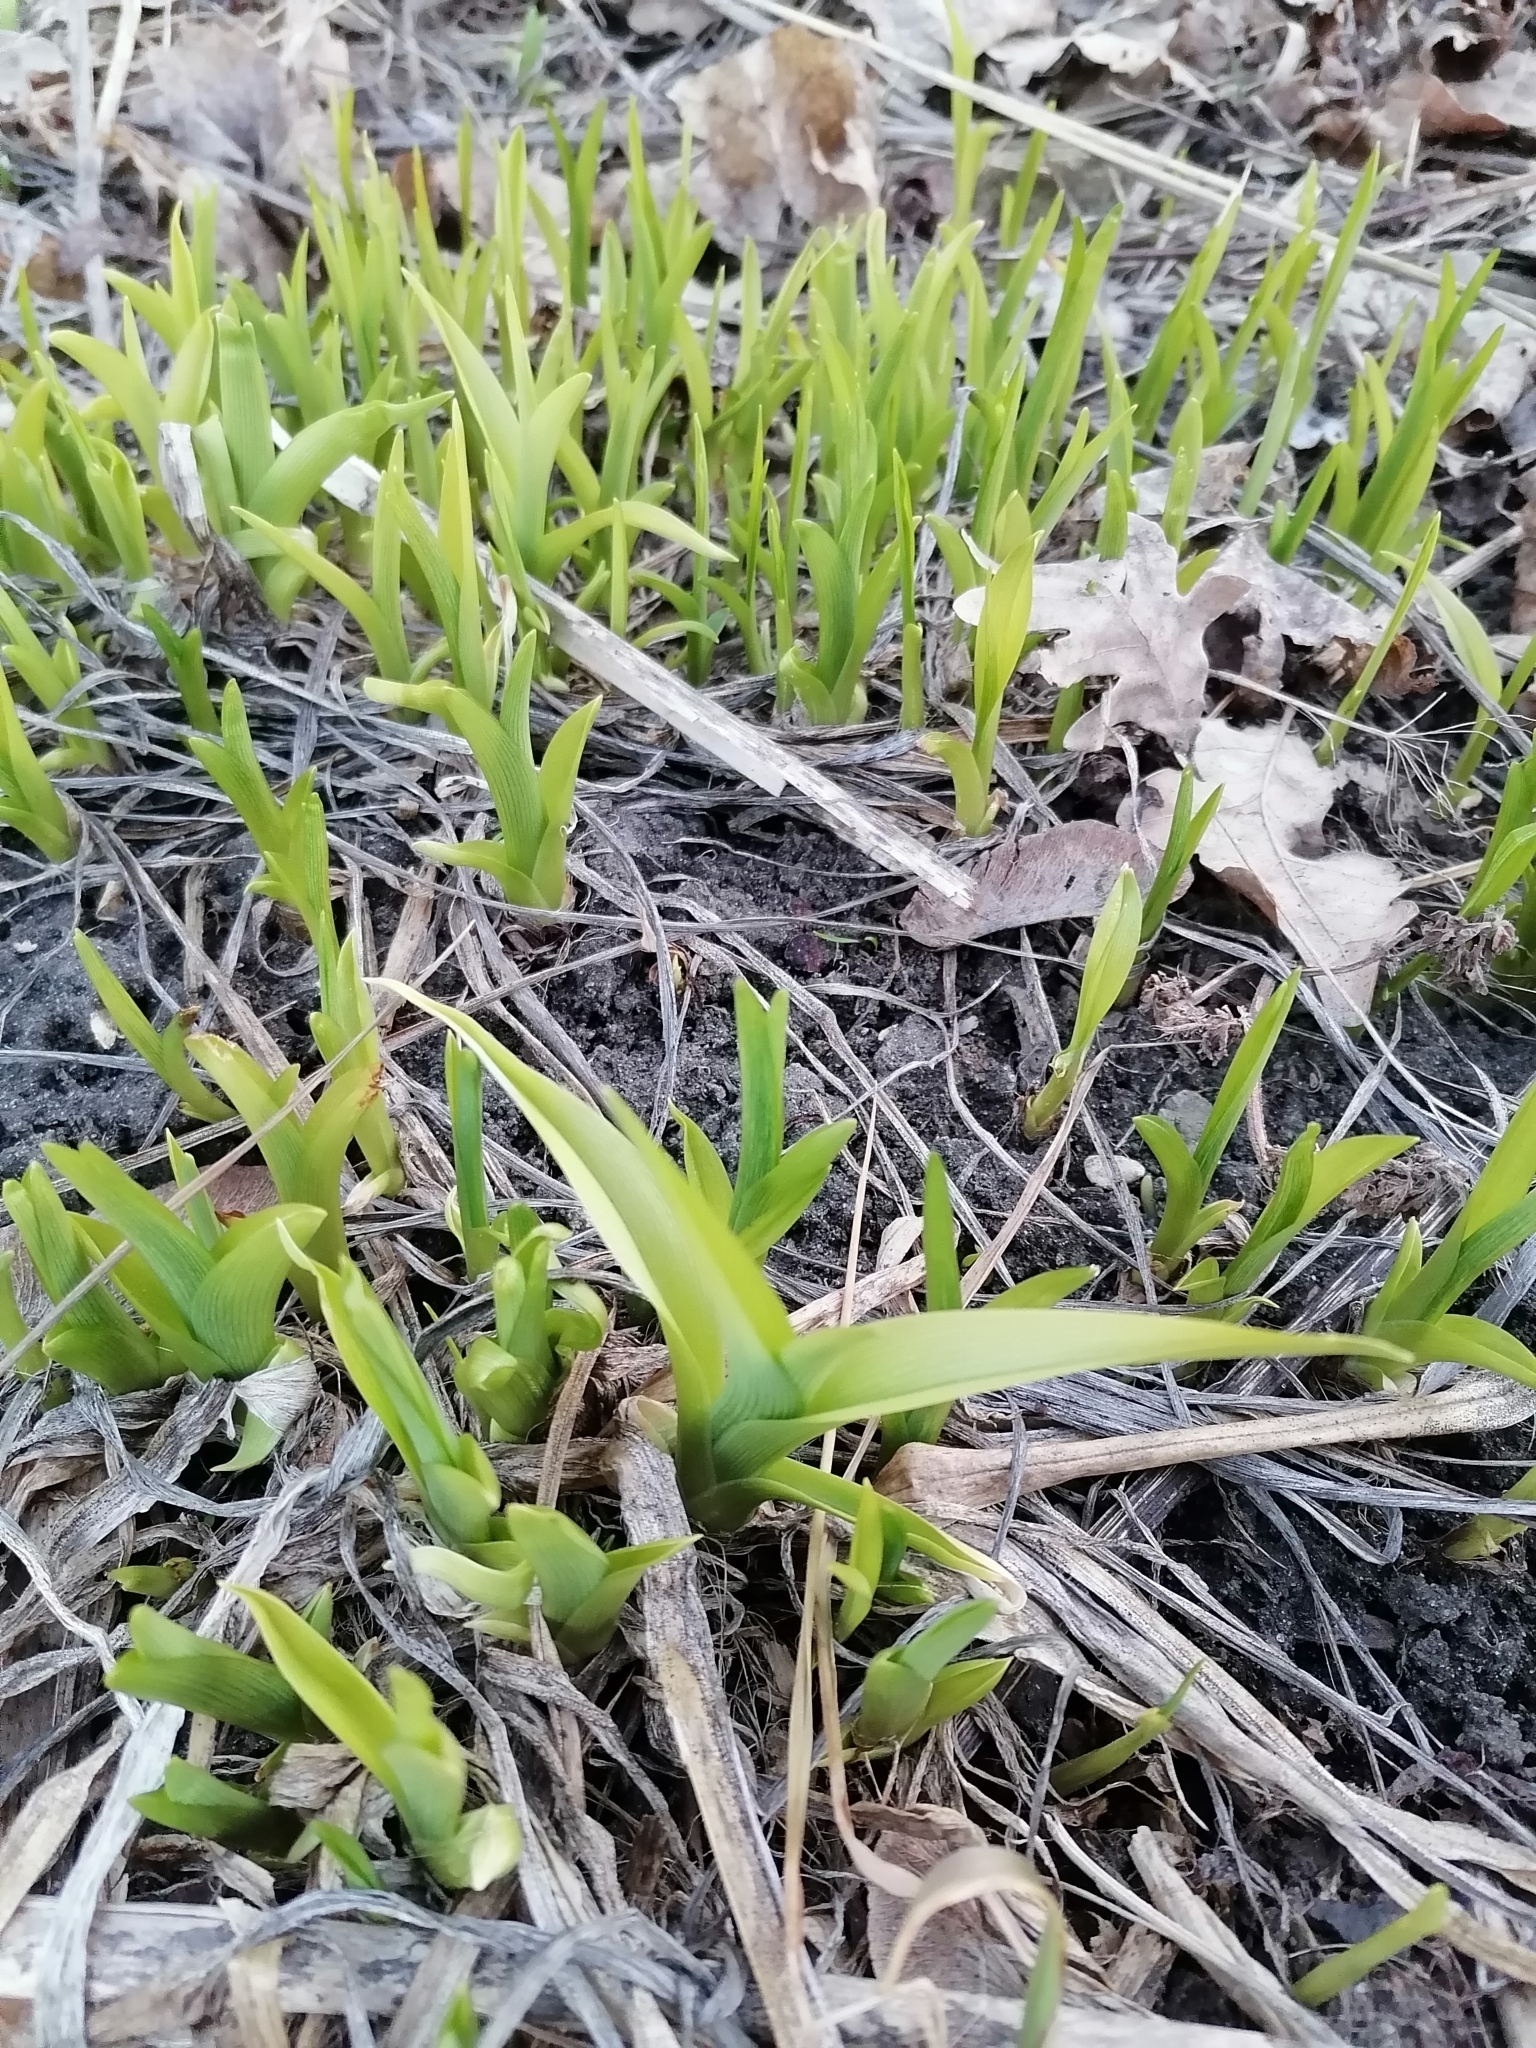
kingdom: Plantae
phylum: Tracheophyta
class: Liliopsida
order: Asparagales
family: Asphodelaceae
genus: Hemerocallis
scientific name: Hemerocallis fulva
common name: Orange day-lily
